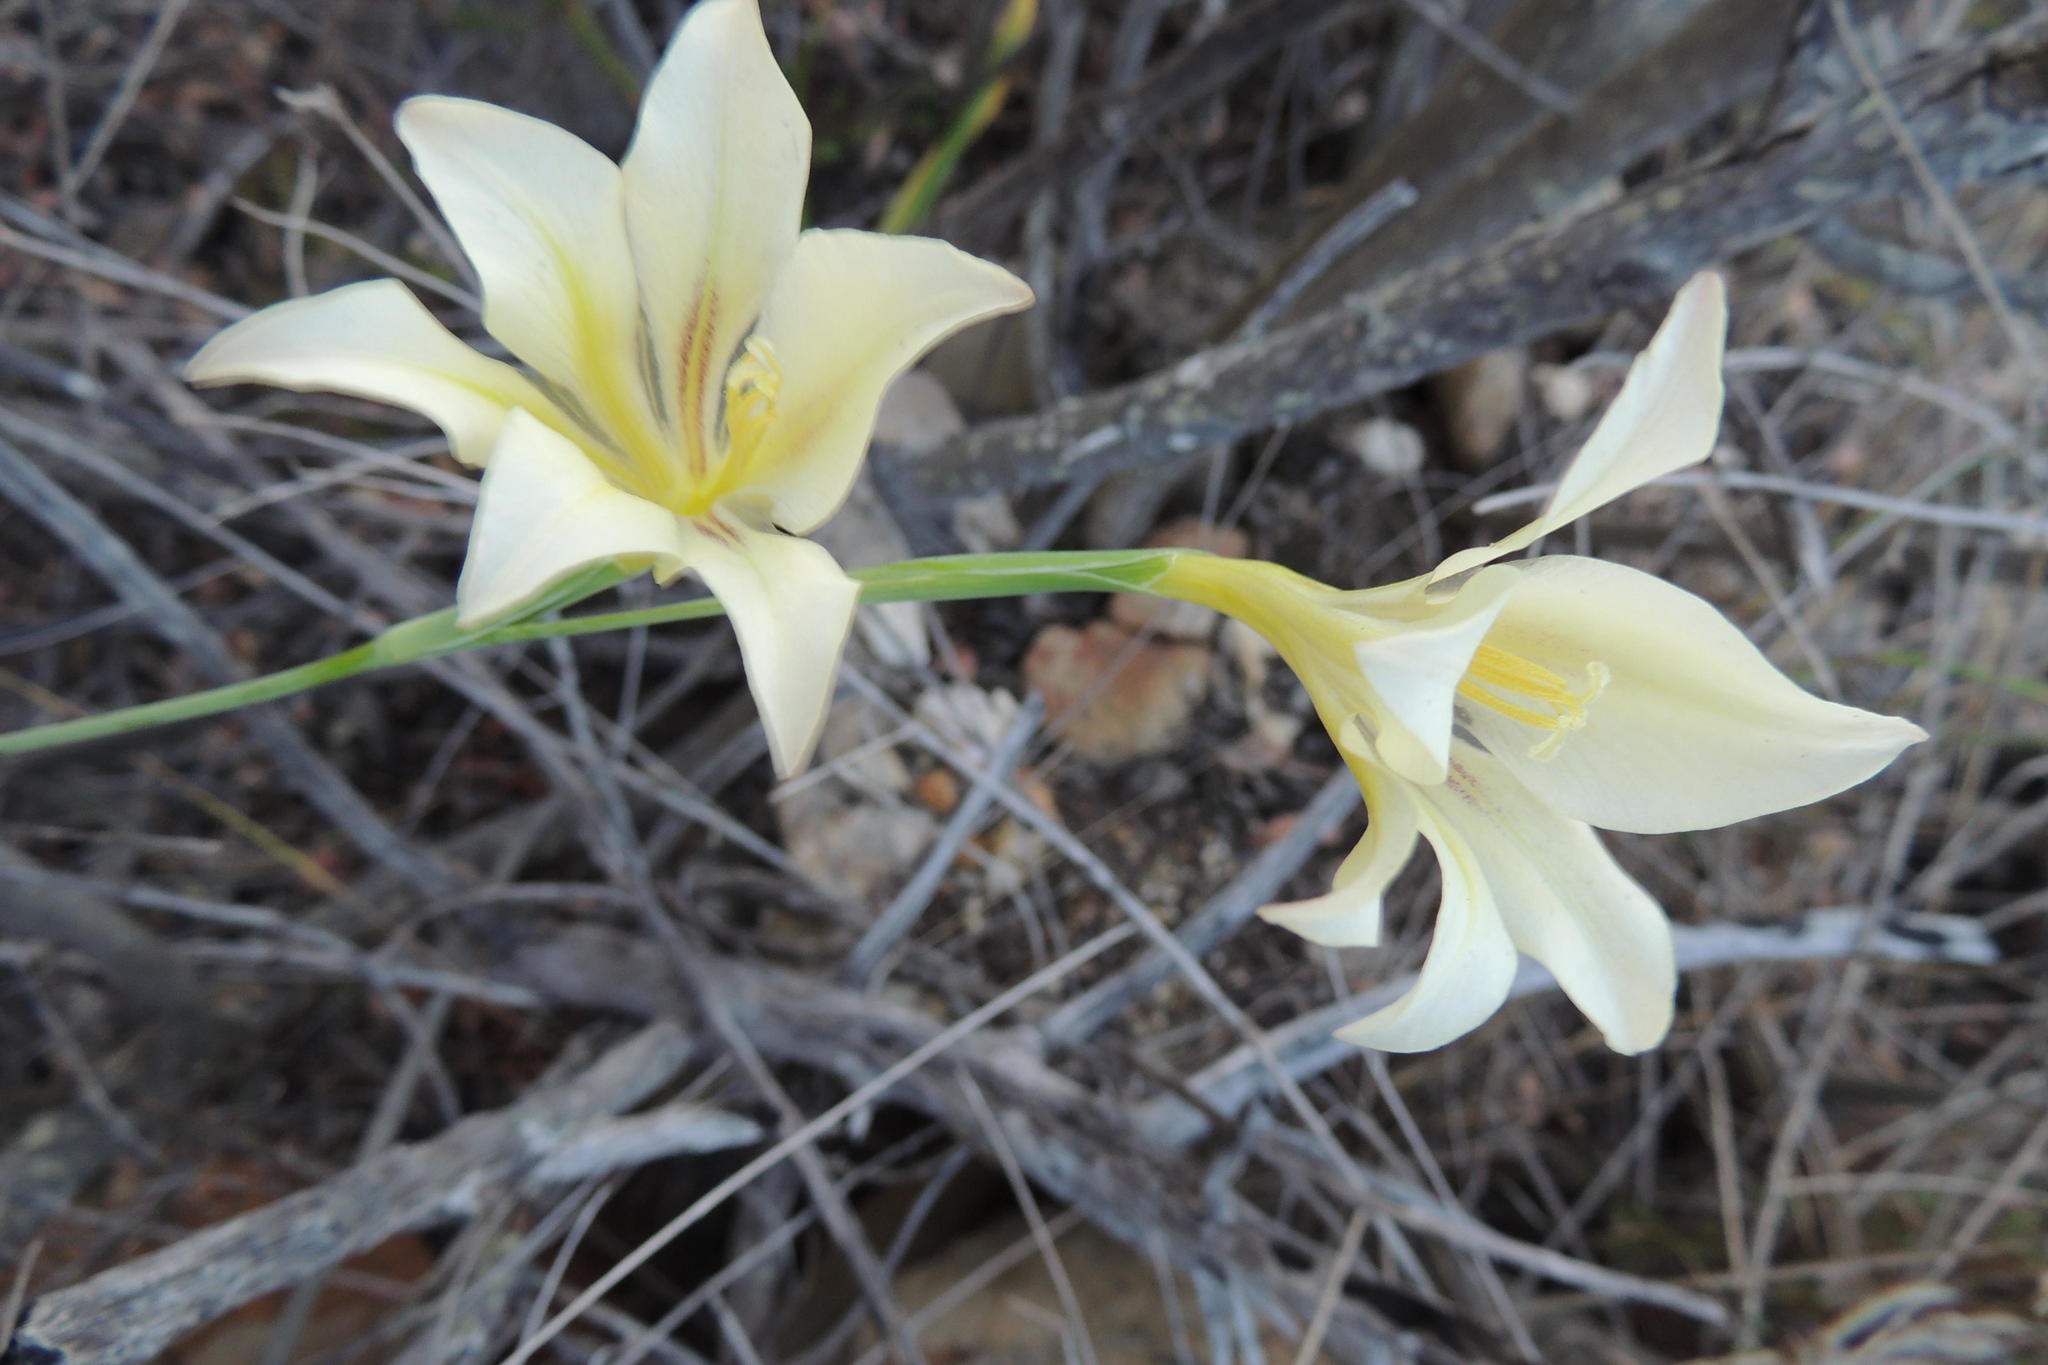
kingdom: Plantae
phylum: Tracheophyta
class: Liliopsida
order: Asparagales
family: Iridaceae
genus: Gladiolus
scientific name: Gladiolus tristis
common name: Ever-flowering gladiolus
